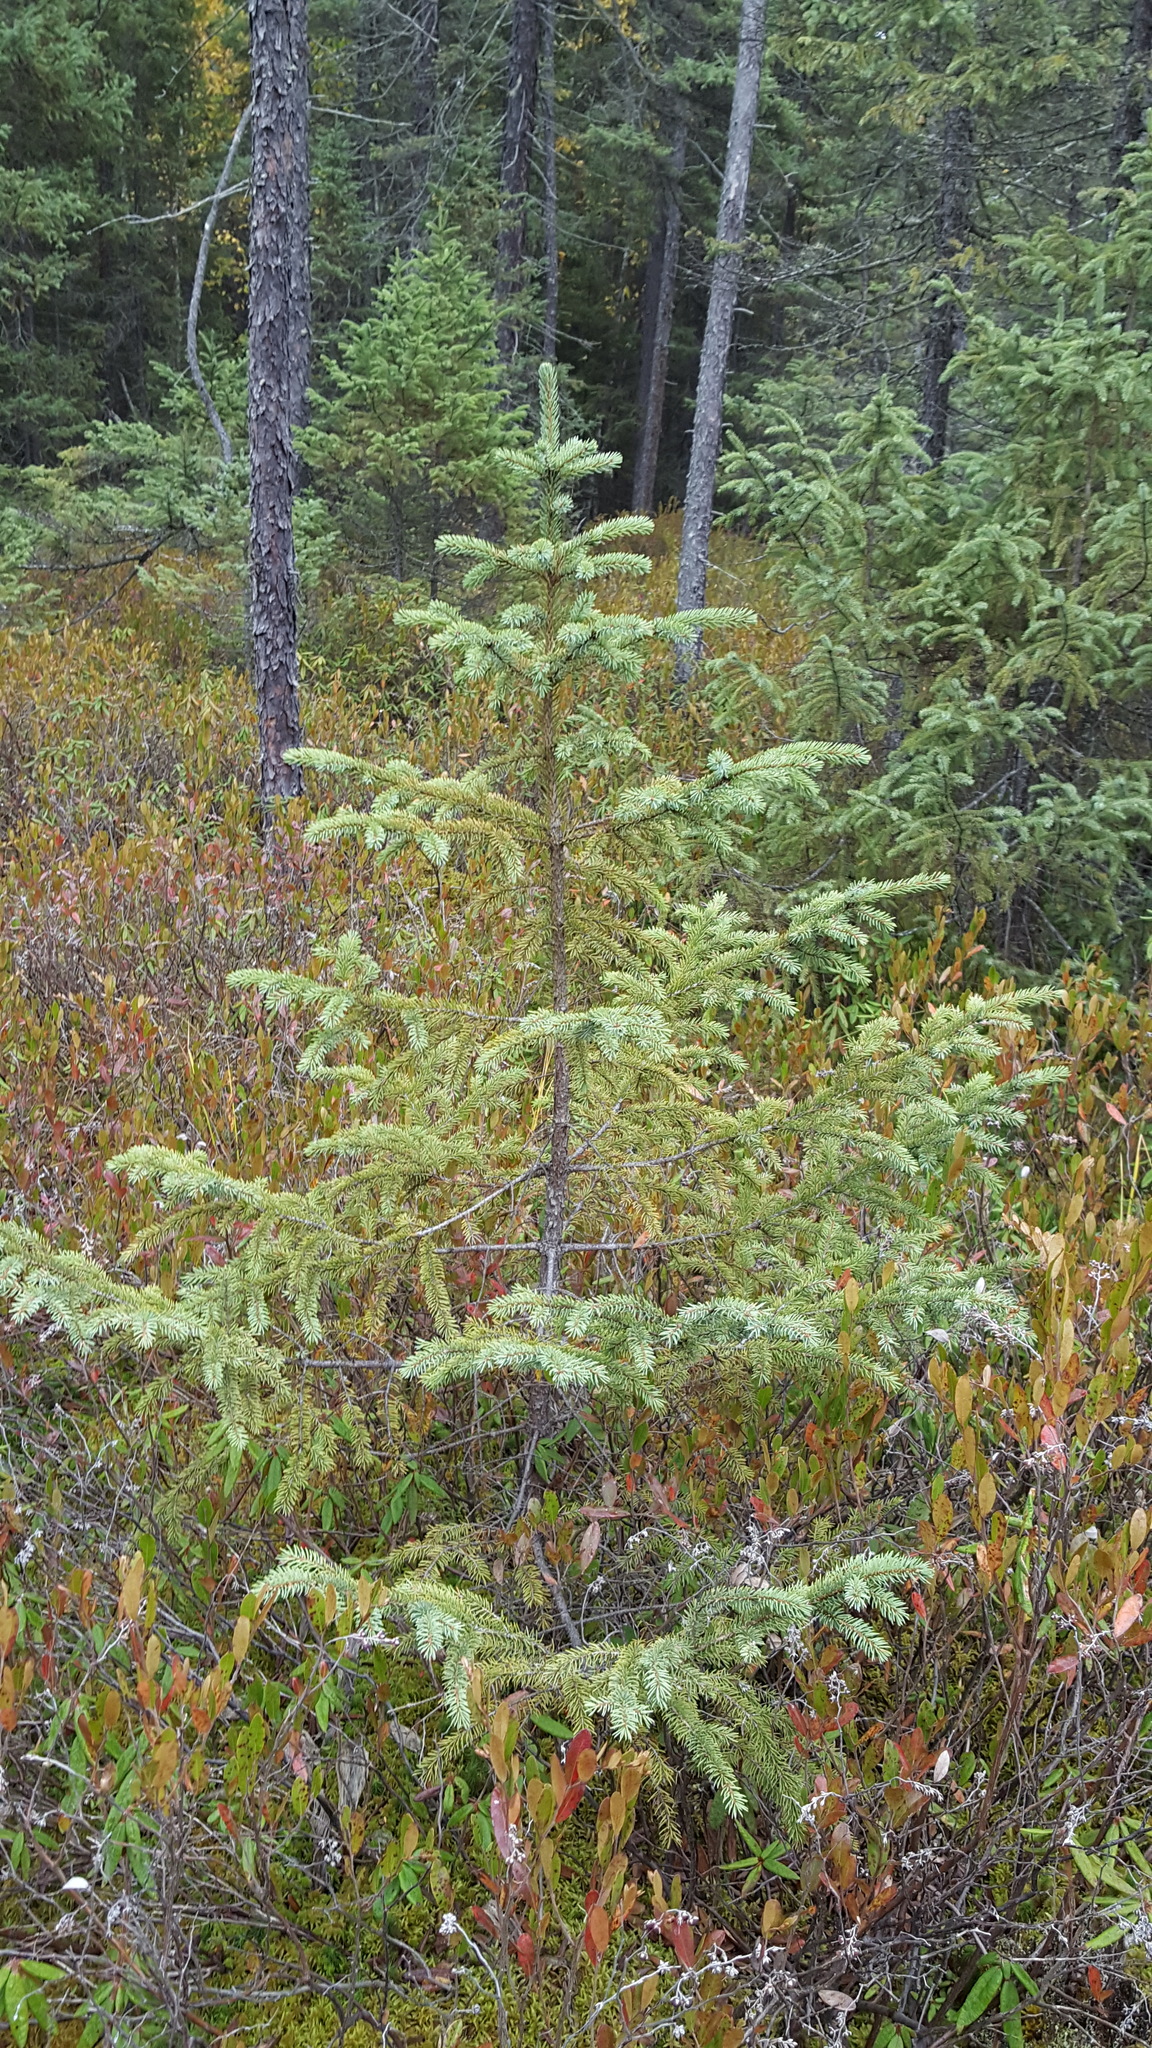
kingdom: Plantae
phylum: Tracheophyta
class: Pinopsida
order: Pinales
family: Pinaceae
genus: Picea
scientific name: Picea mariana
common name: Black spruce
